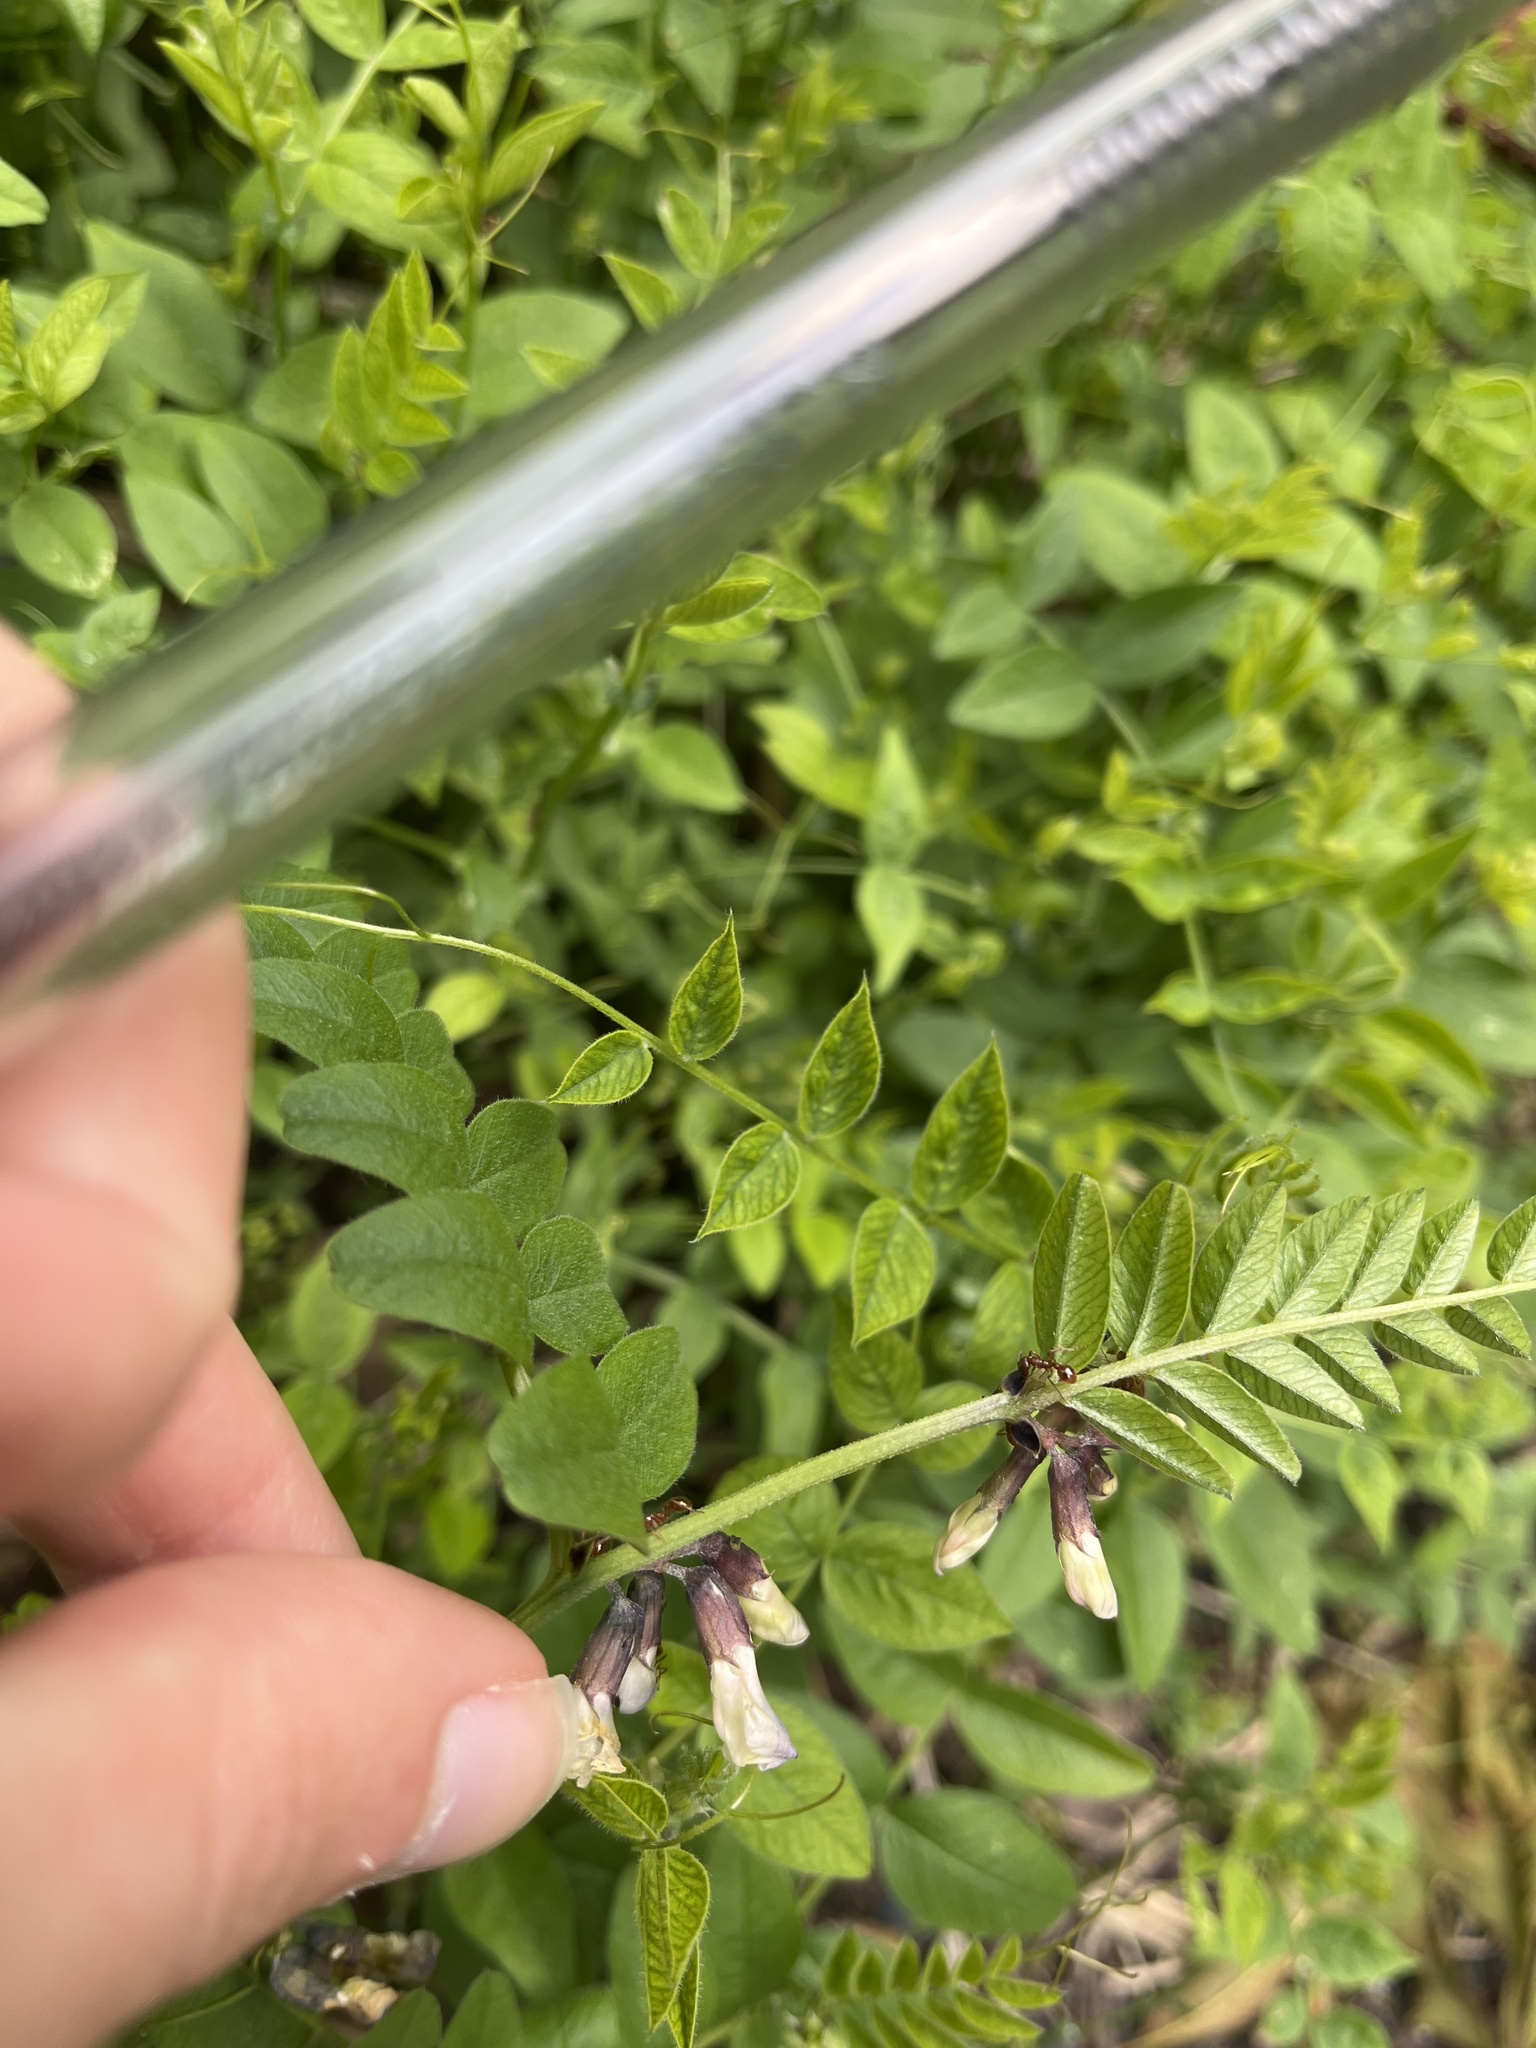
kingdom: Plantae
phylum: Tracheophyta
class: Magnoliopsida
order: Fabales
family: Fabaceae
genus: Vicia
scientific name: Vicia sepium
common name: Bush vetch
